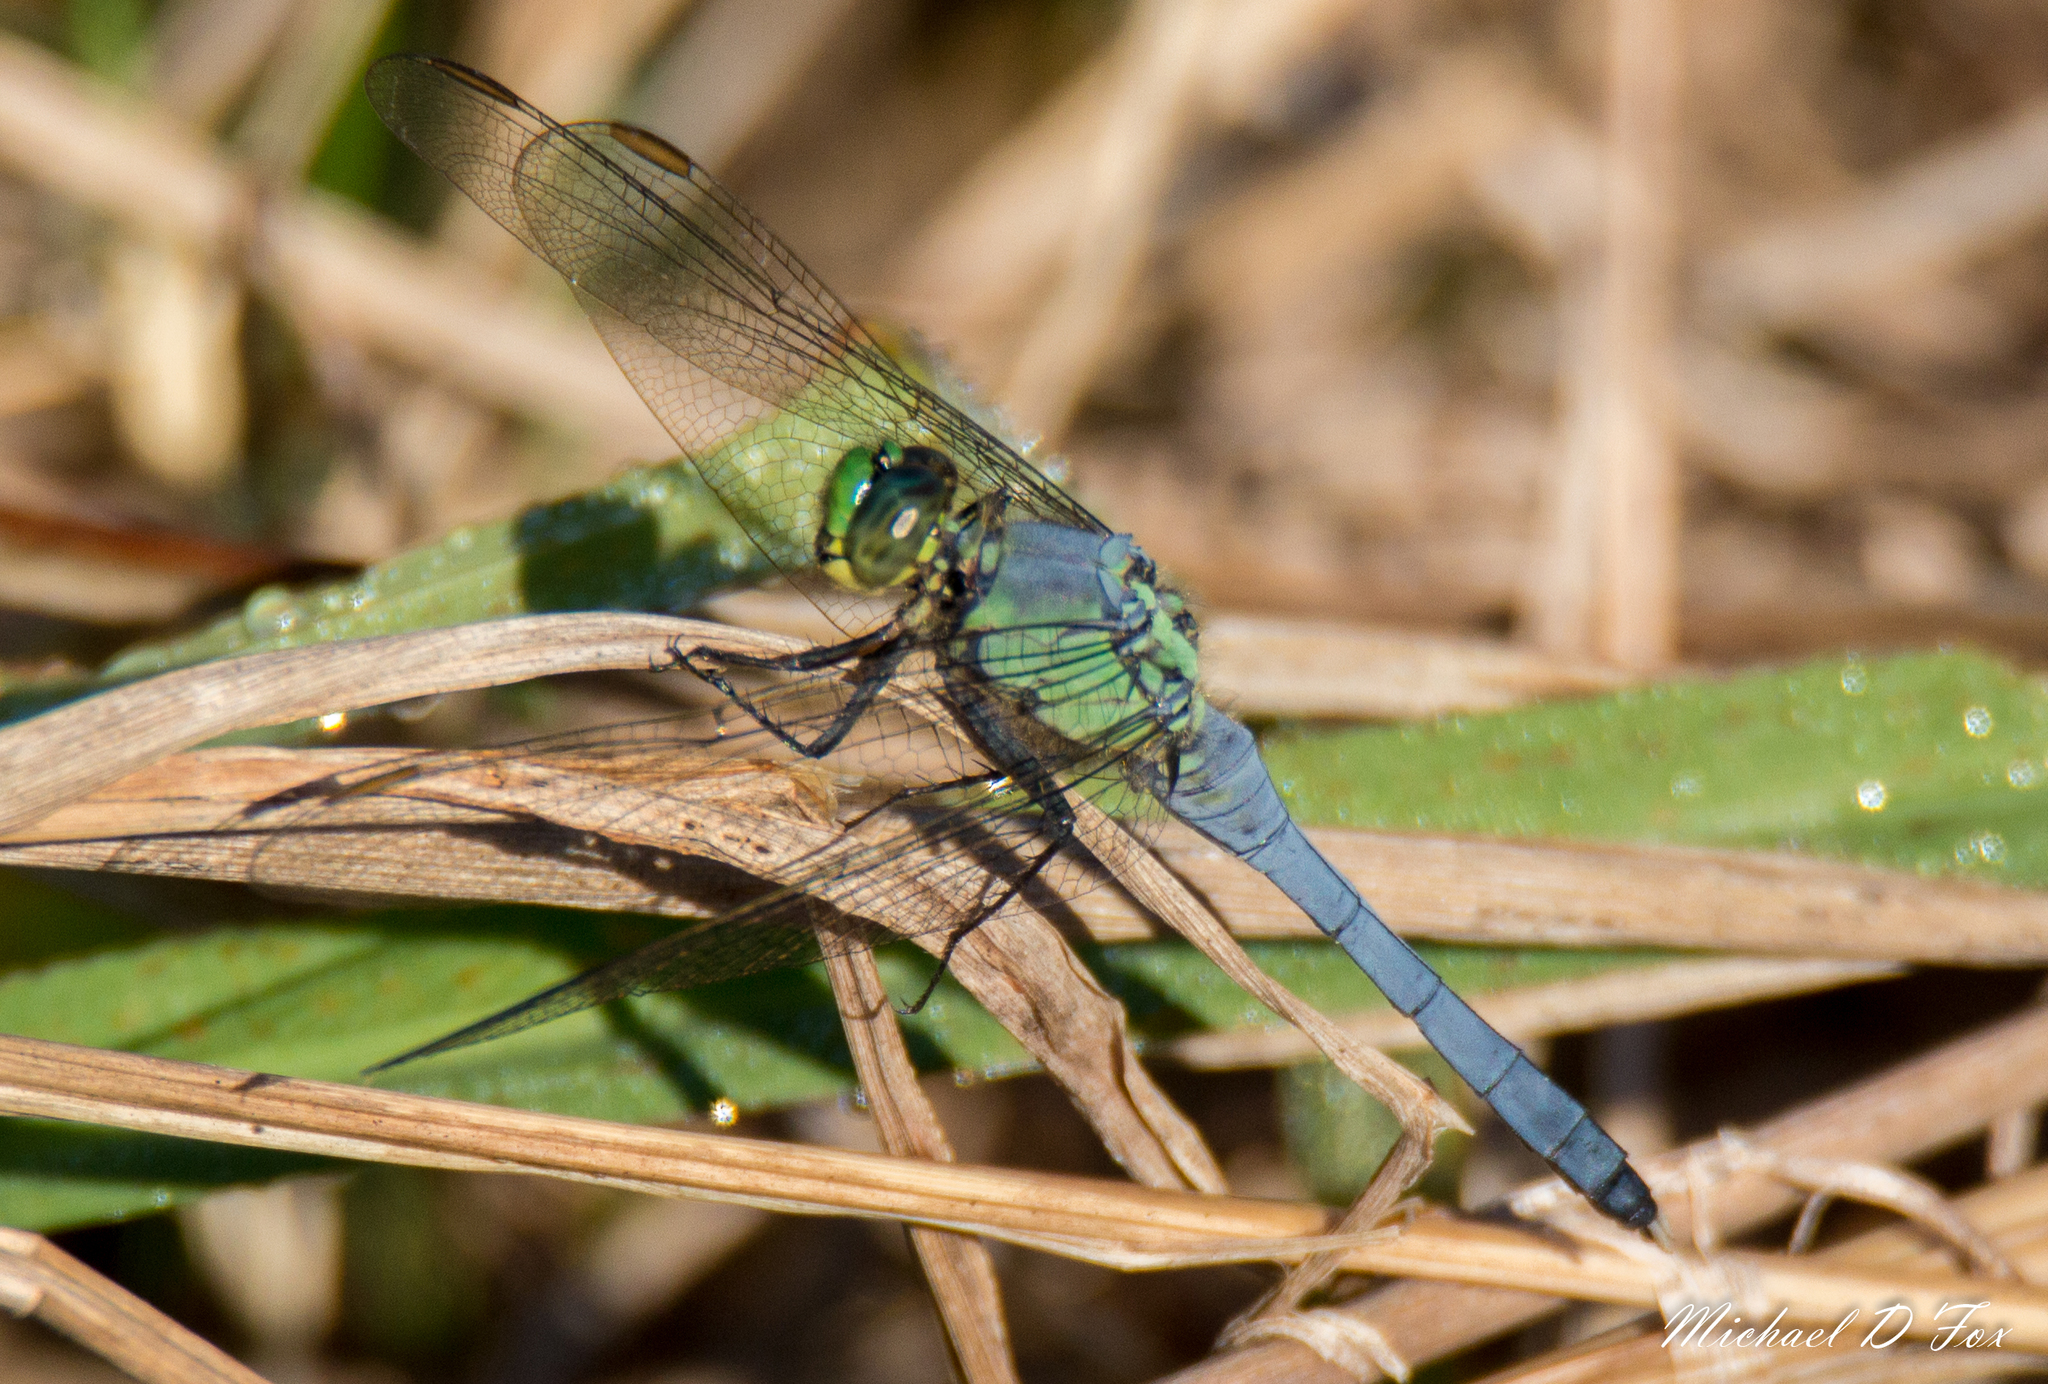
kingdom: Animalia
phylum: Arthropoda
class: Insecta
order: Odonata
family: Libellulidae
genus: Erythemis
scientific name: Erythemis simplicicollis
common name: Eastern pondhawk
